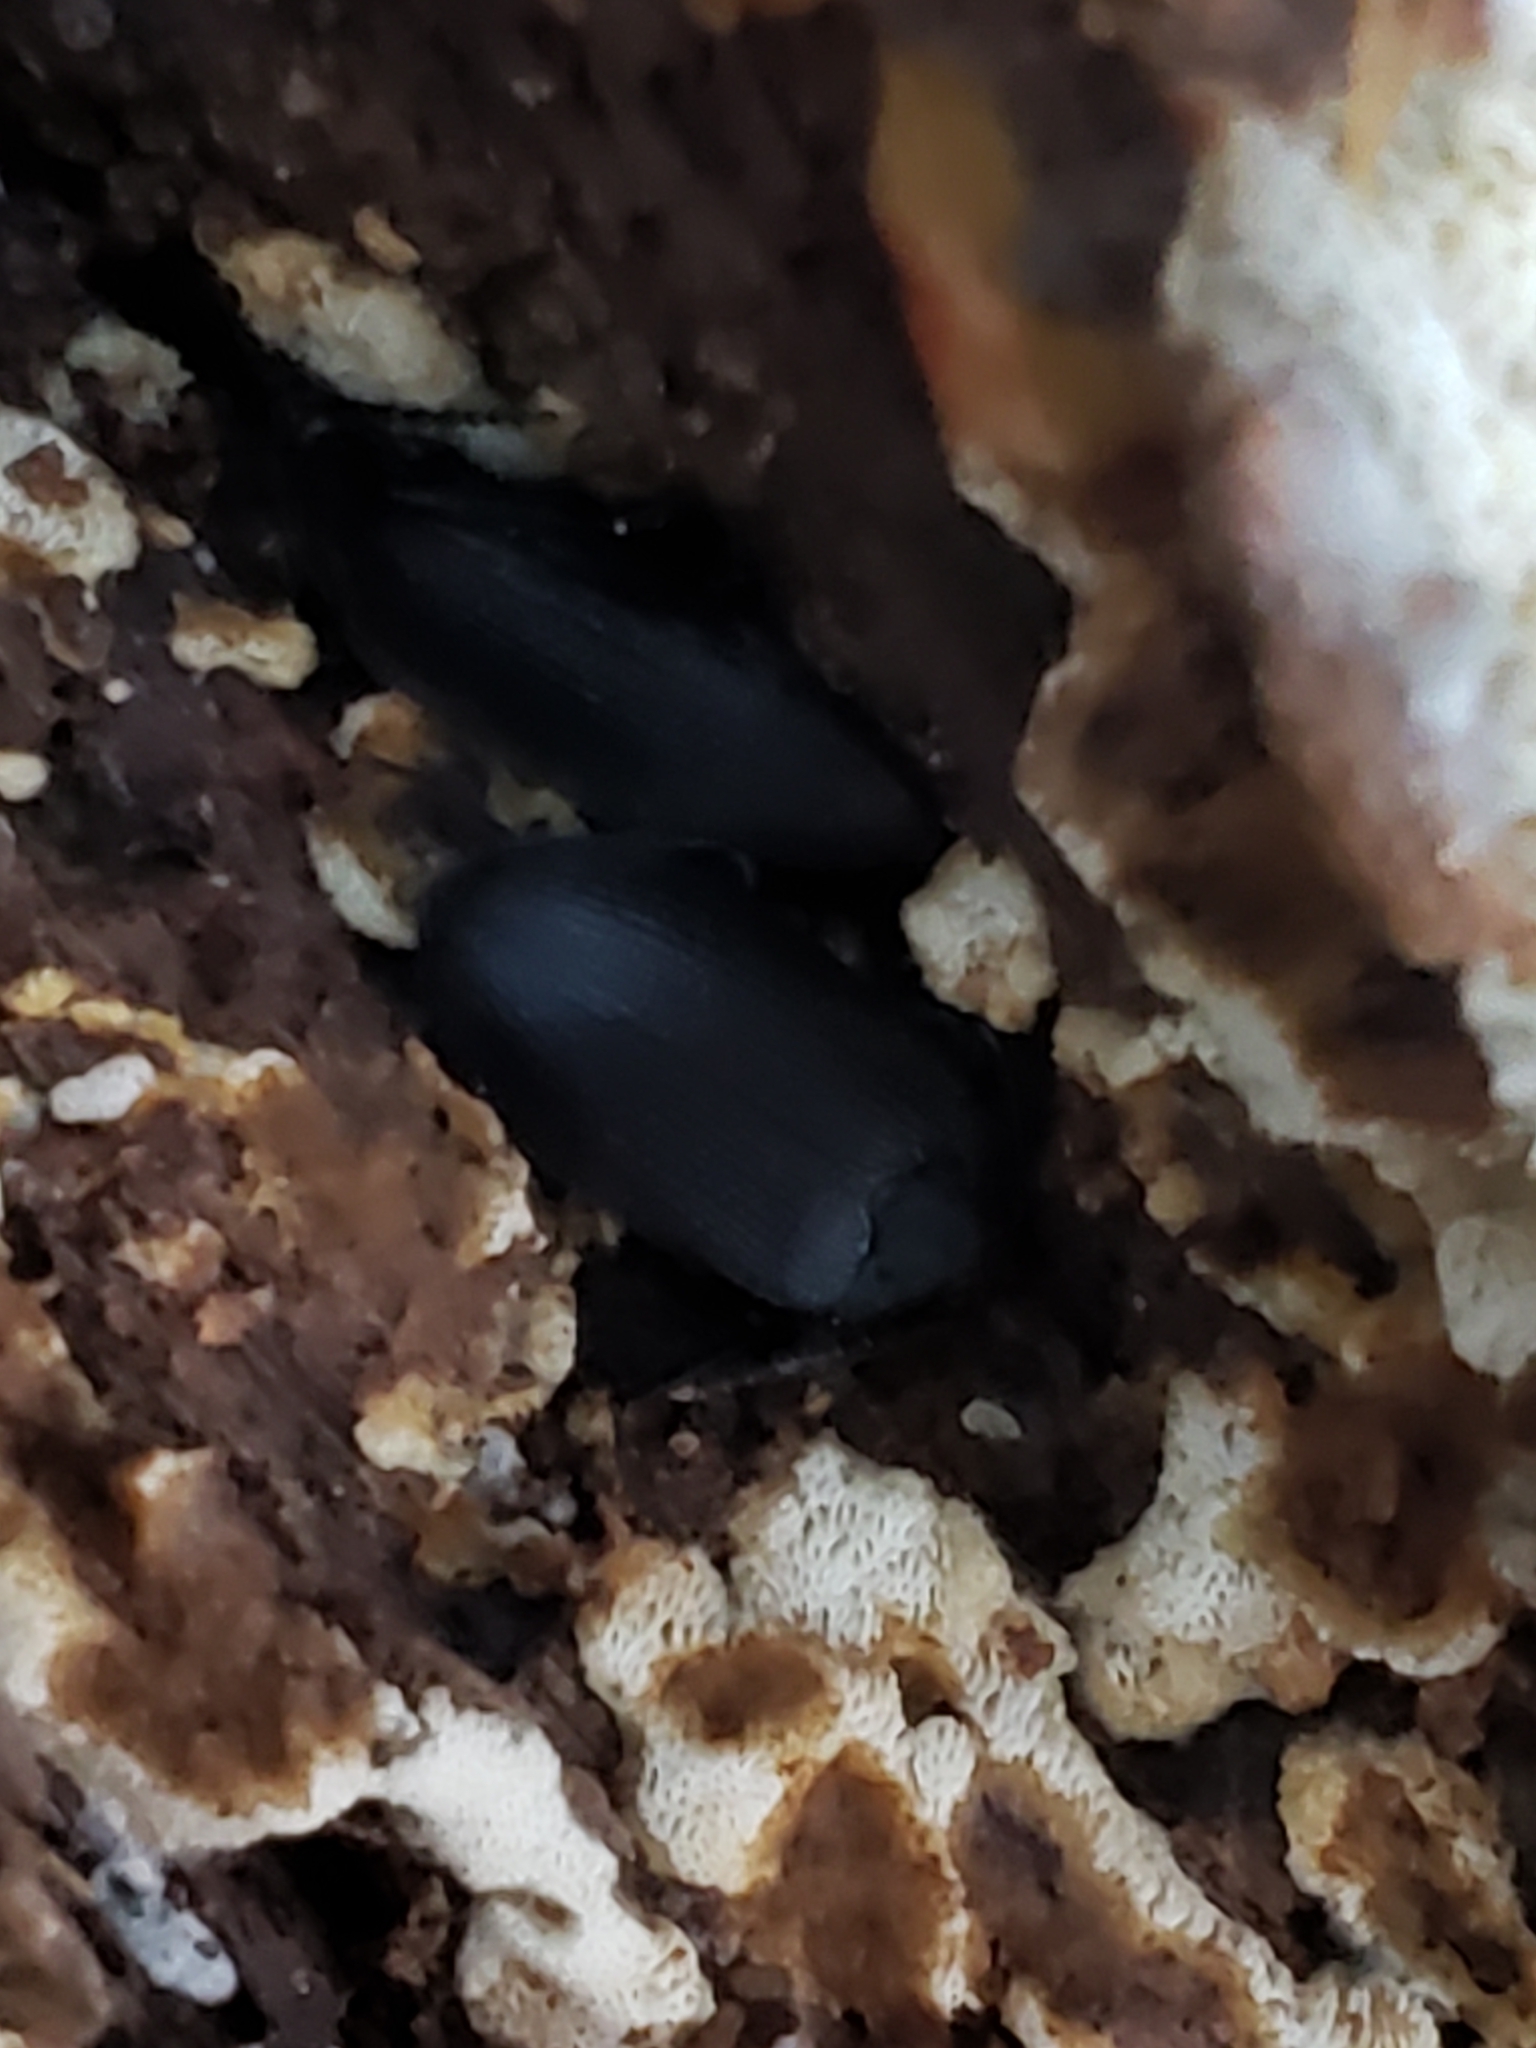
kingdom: Animalia
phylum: Arthropoda
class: Insecta
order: Coleoptera
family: Tetratomidae
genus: Penthe
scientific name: Penthe pimelia
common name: Velvety bark beetle
